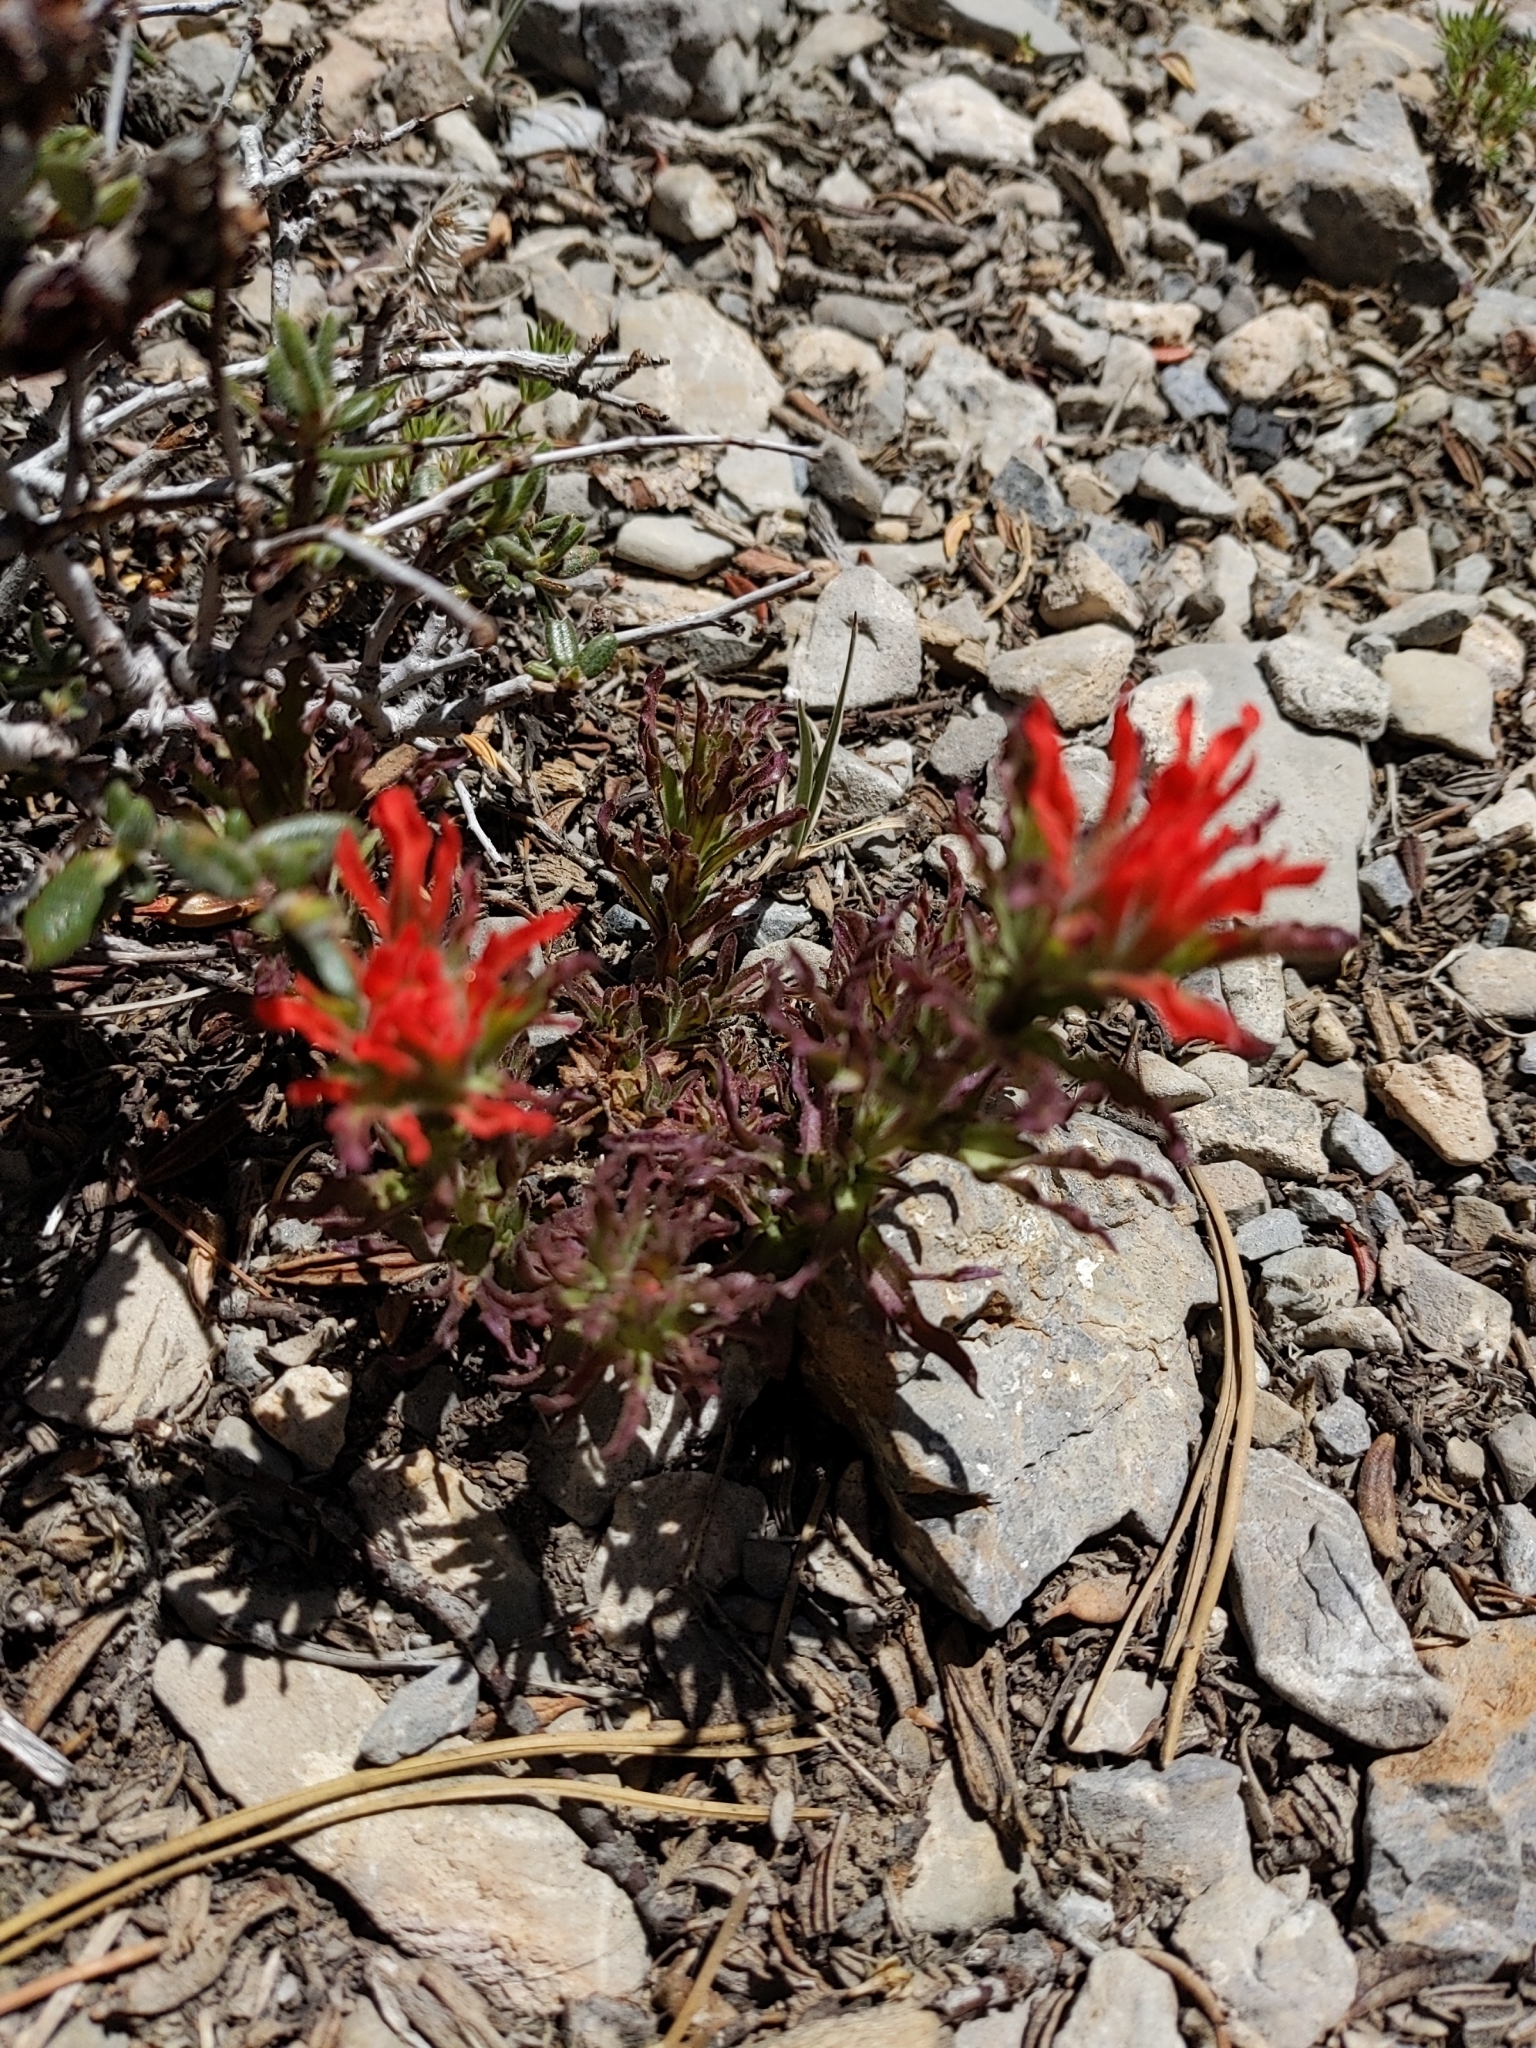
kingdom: Plantae
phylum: Tracheophyta
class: Magnoliopsida
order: Lamiales
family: Orobanchaceae
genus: Castilleja
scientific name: Castilleja martini
